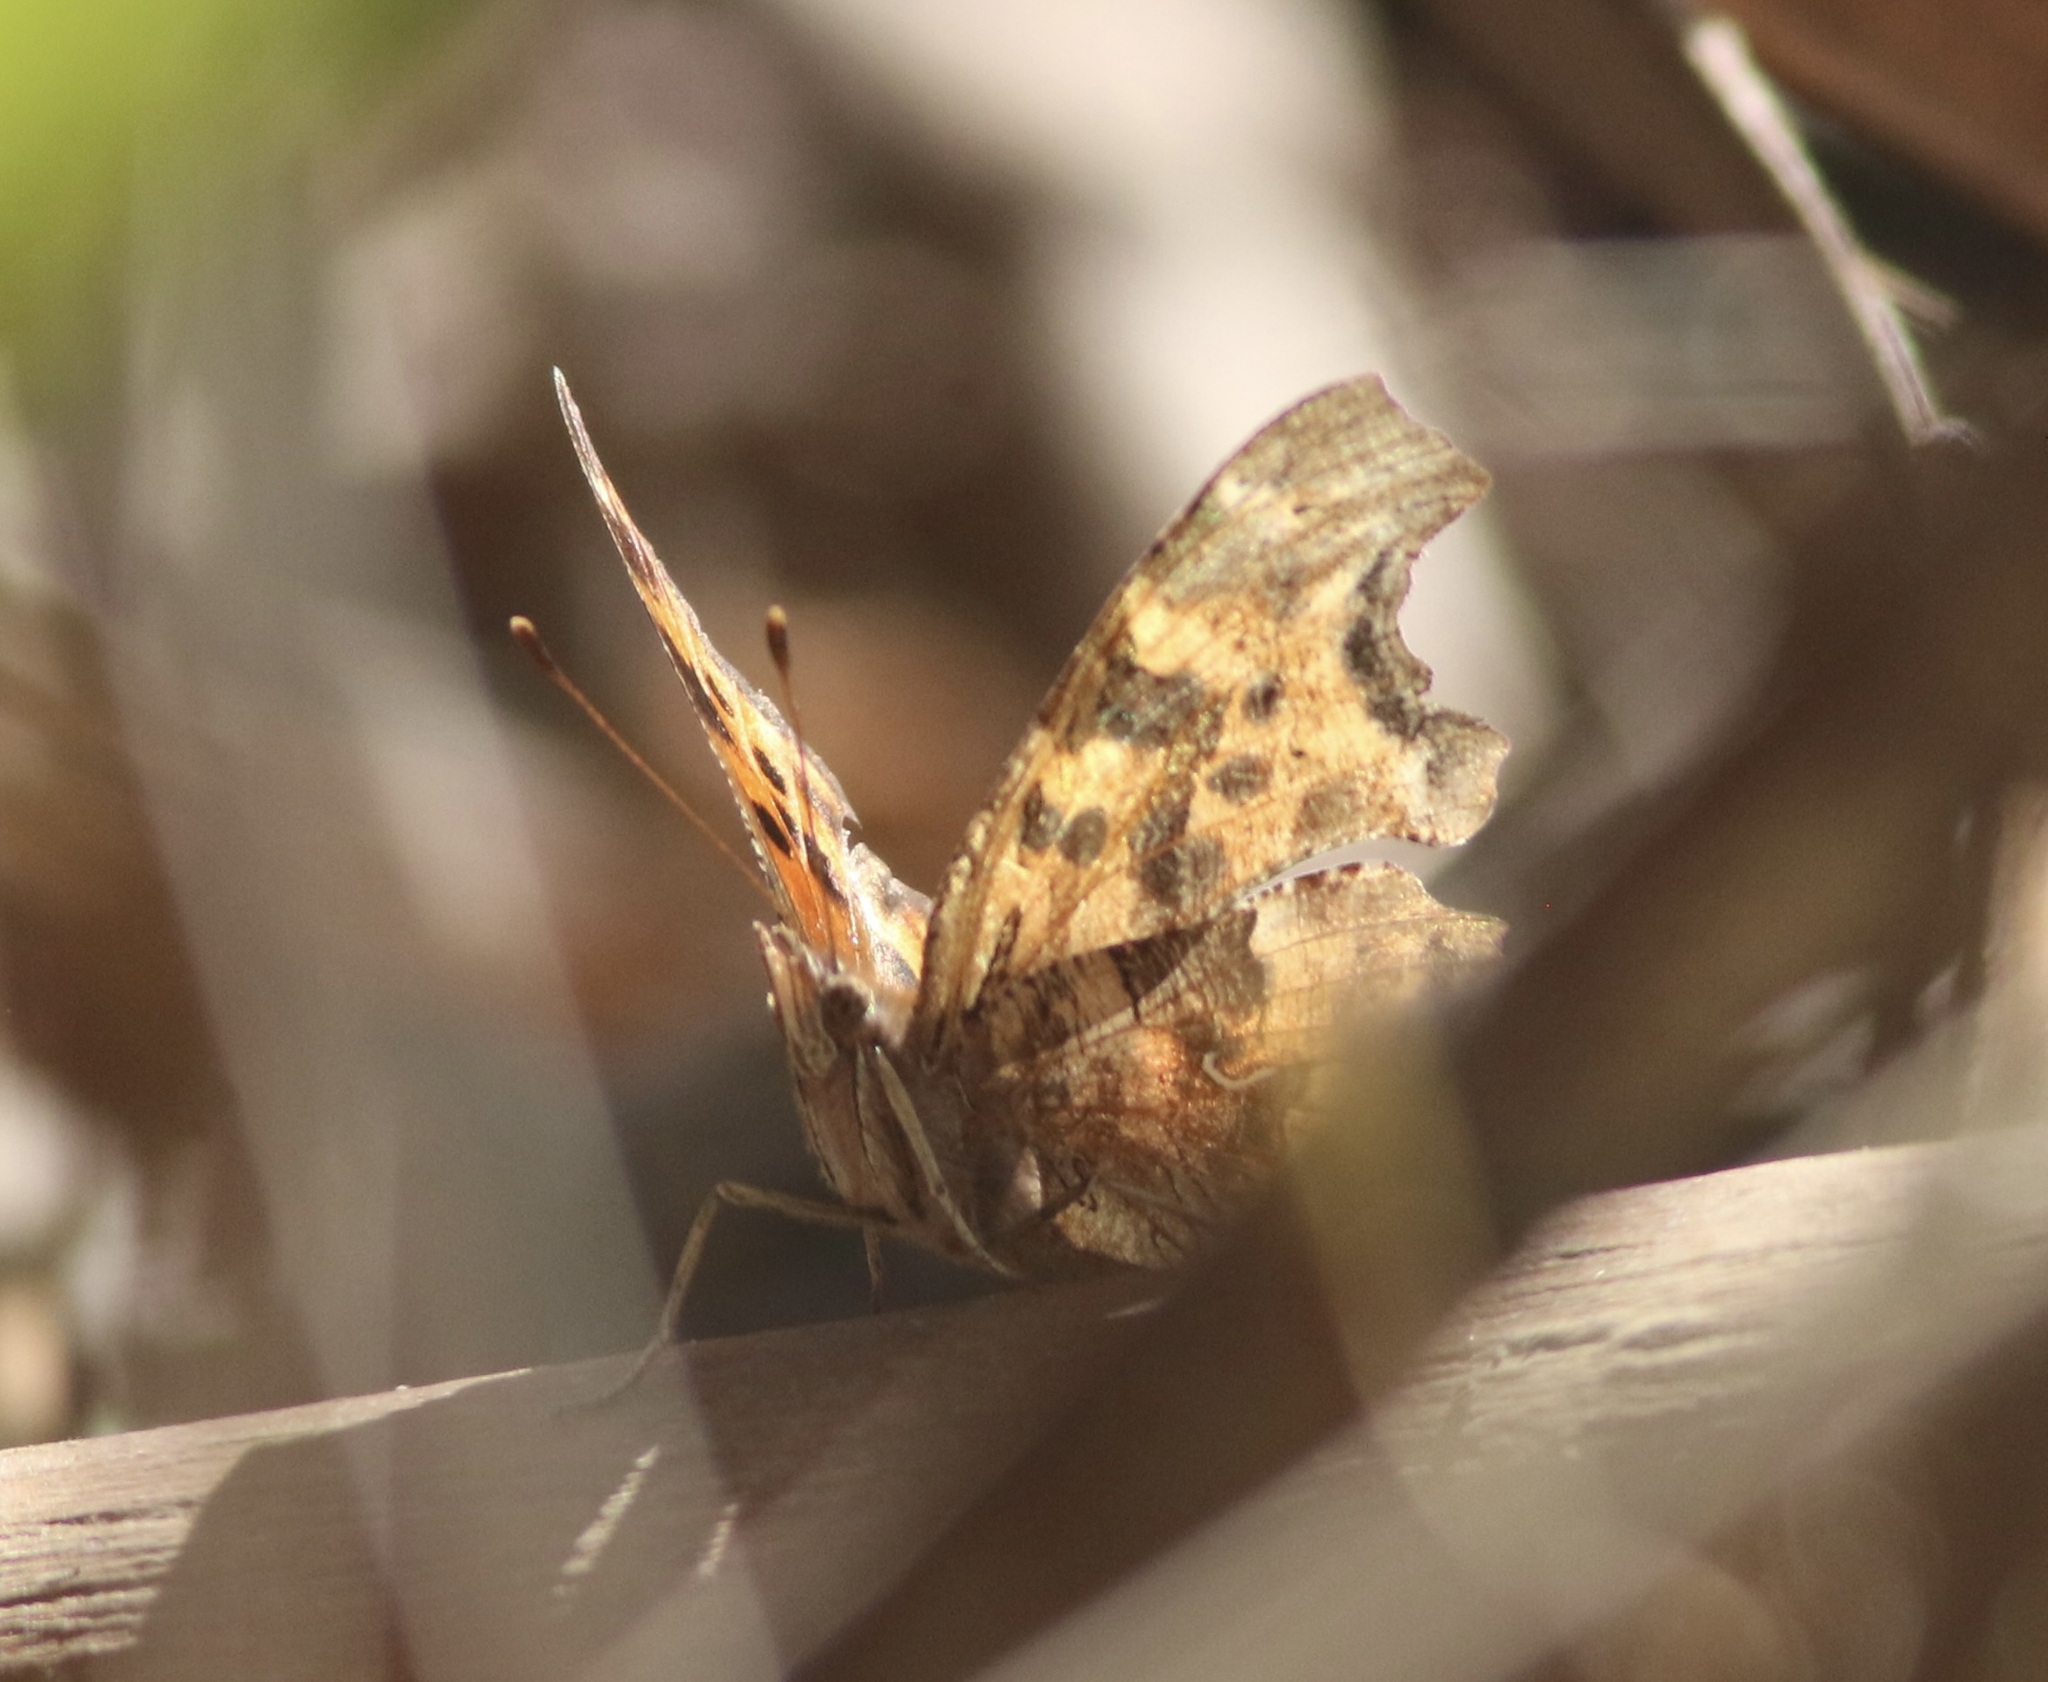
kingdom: Animalia
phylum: Arthropoda
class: Insecta
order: Lepidoptera
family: Nymphalidae
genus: Polygonia
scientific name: Polygonia satyrus
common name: Satyr angle wing
